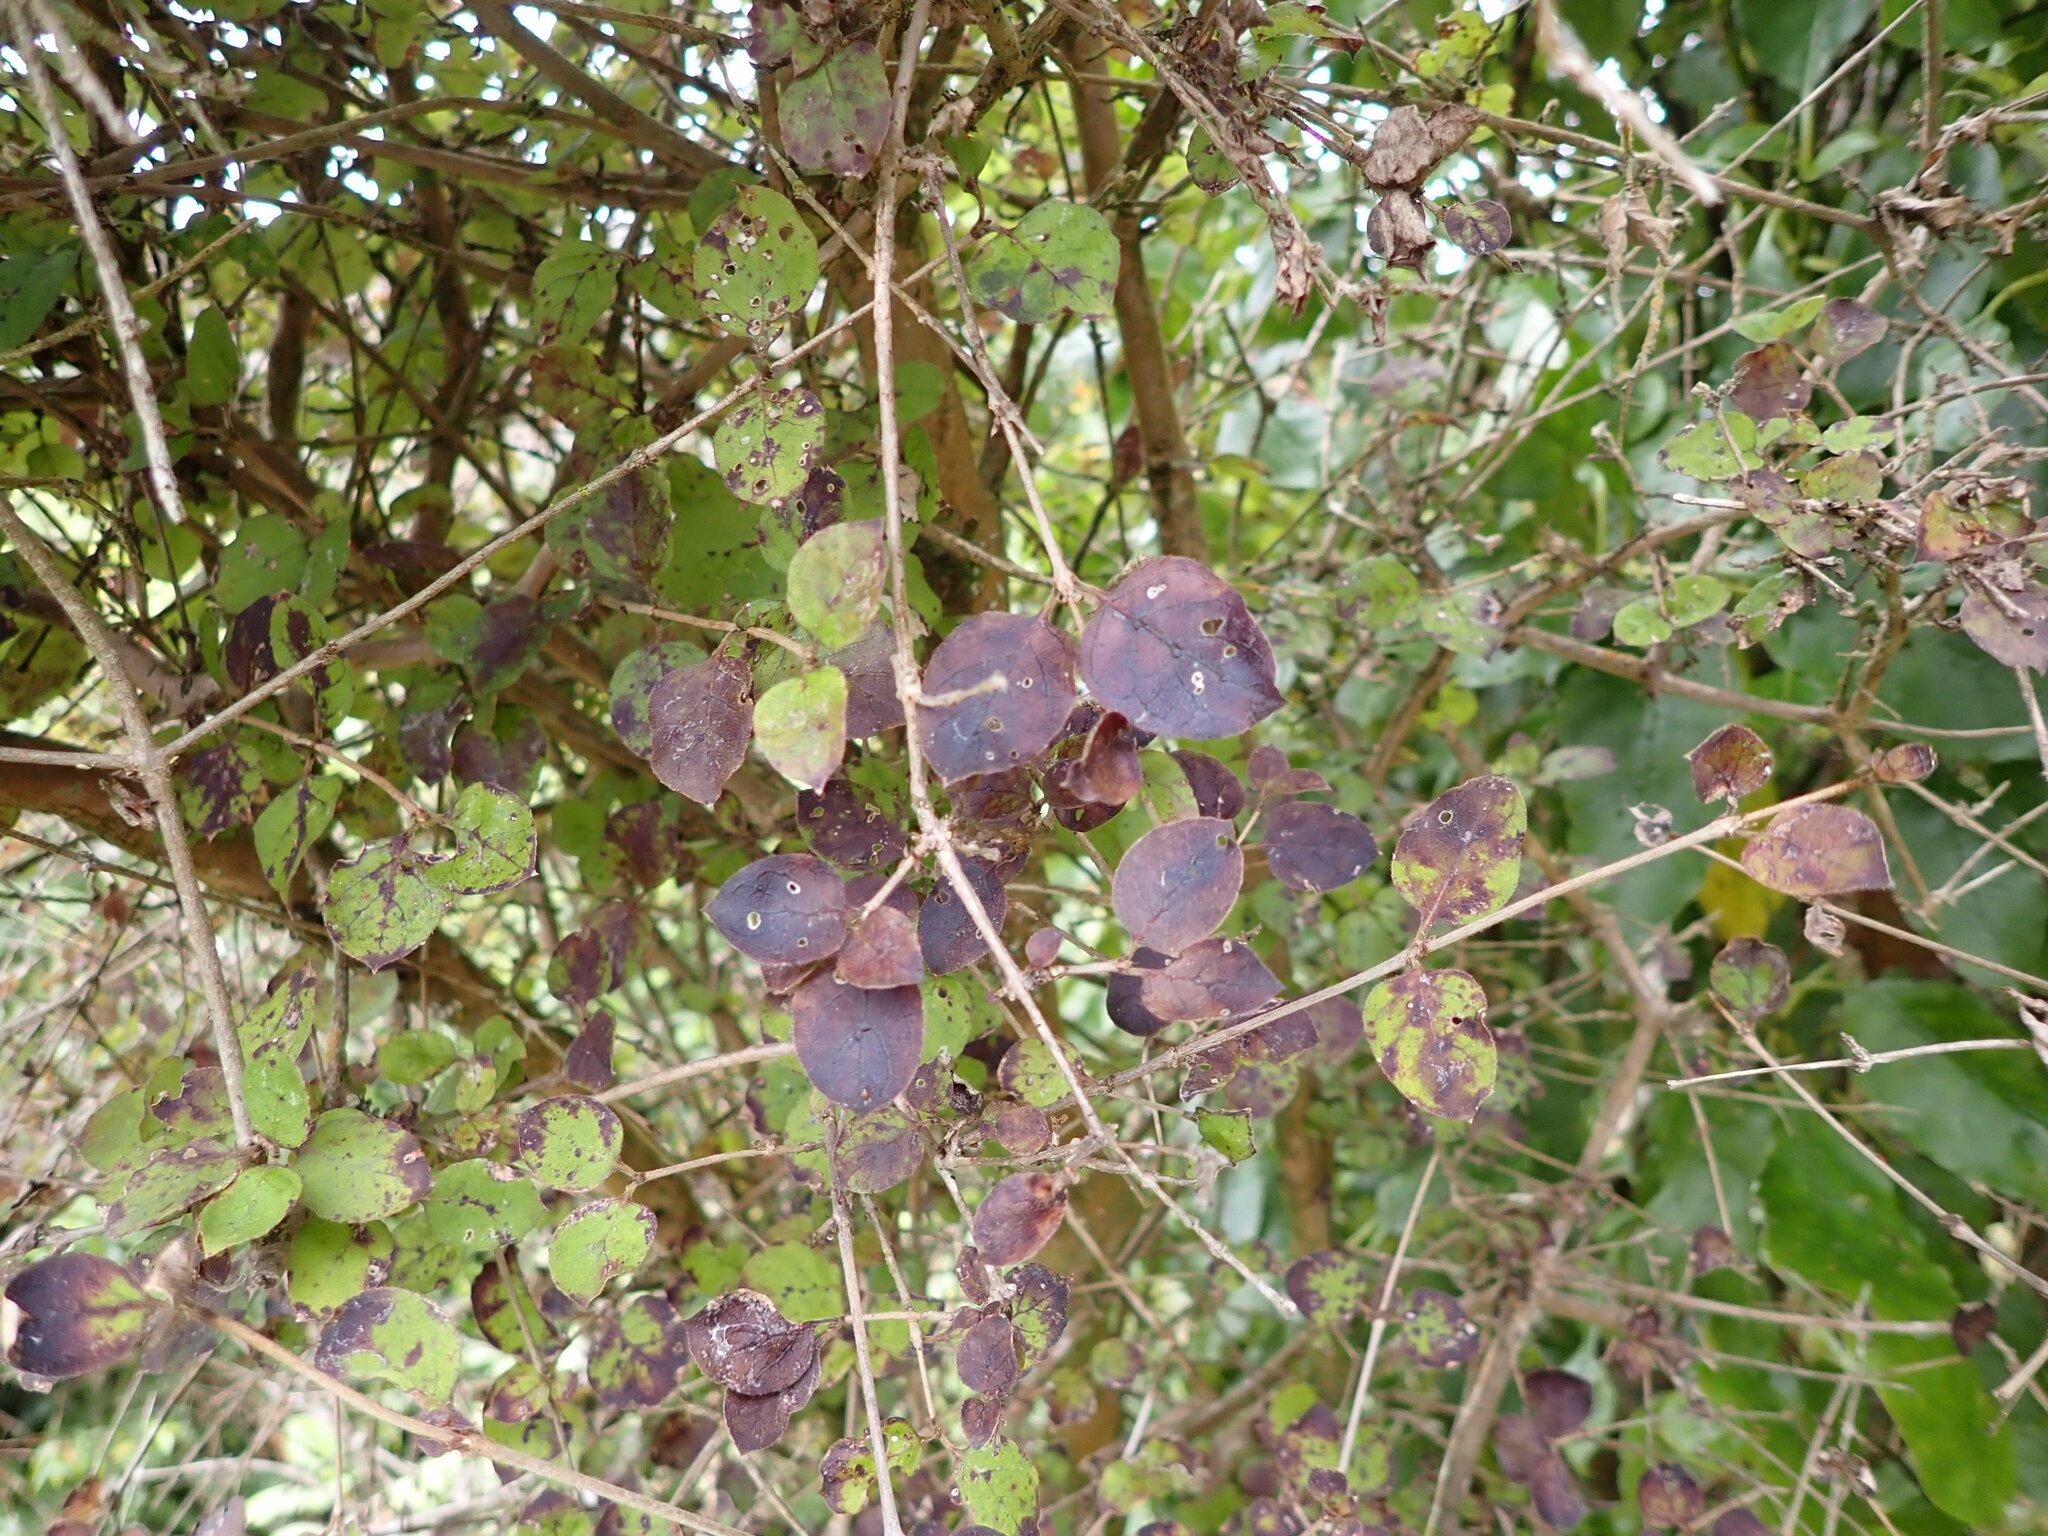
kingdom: Plantae
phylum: Tracheophyta
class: Magnoliopsida
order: Gentianales
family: Rubiaceae
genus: Coprosma
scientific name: Coprosma rotundifolia
